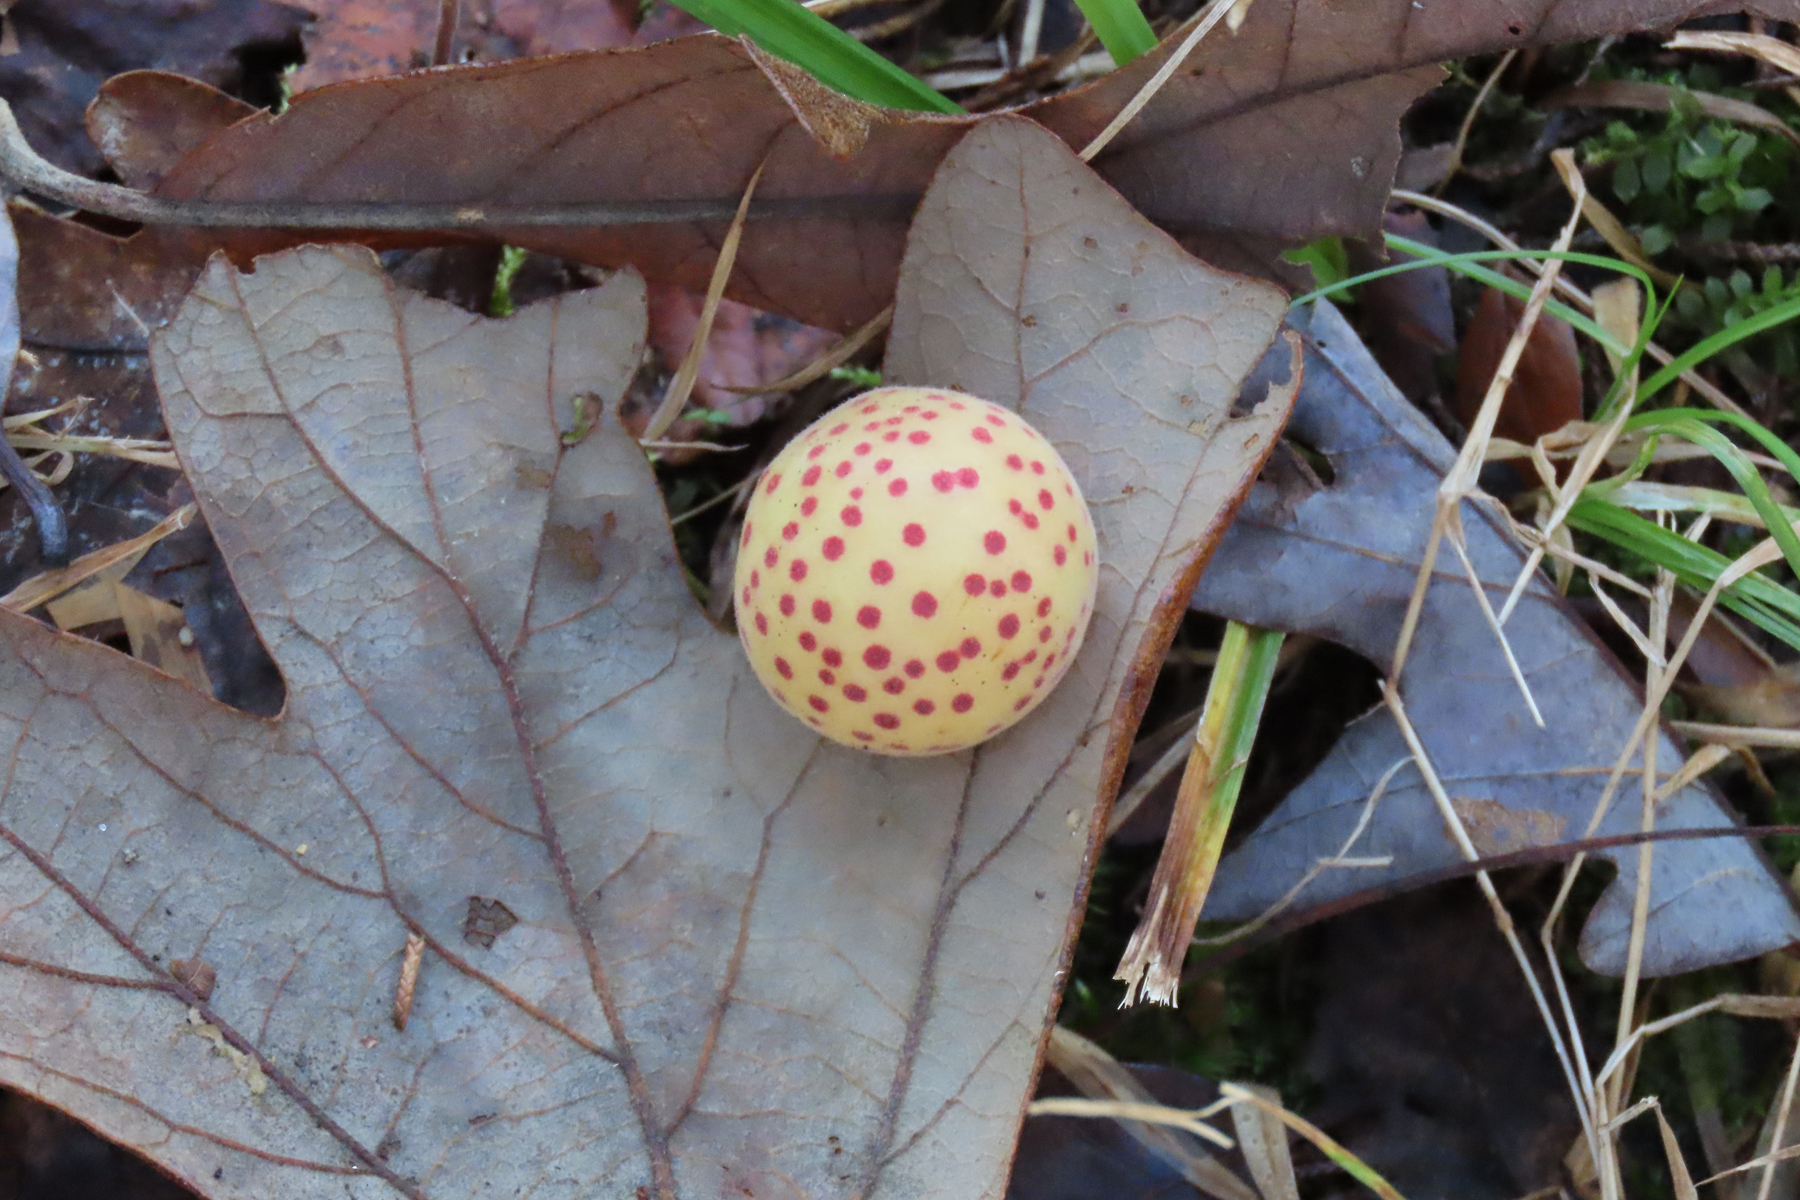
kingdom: Animalia
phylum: Arthropoda
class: Insecta
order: Hymenoptera
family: Cynipidae
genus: Atrusca
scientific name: Atrusca
